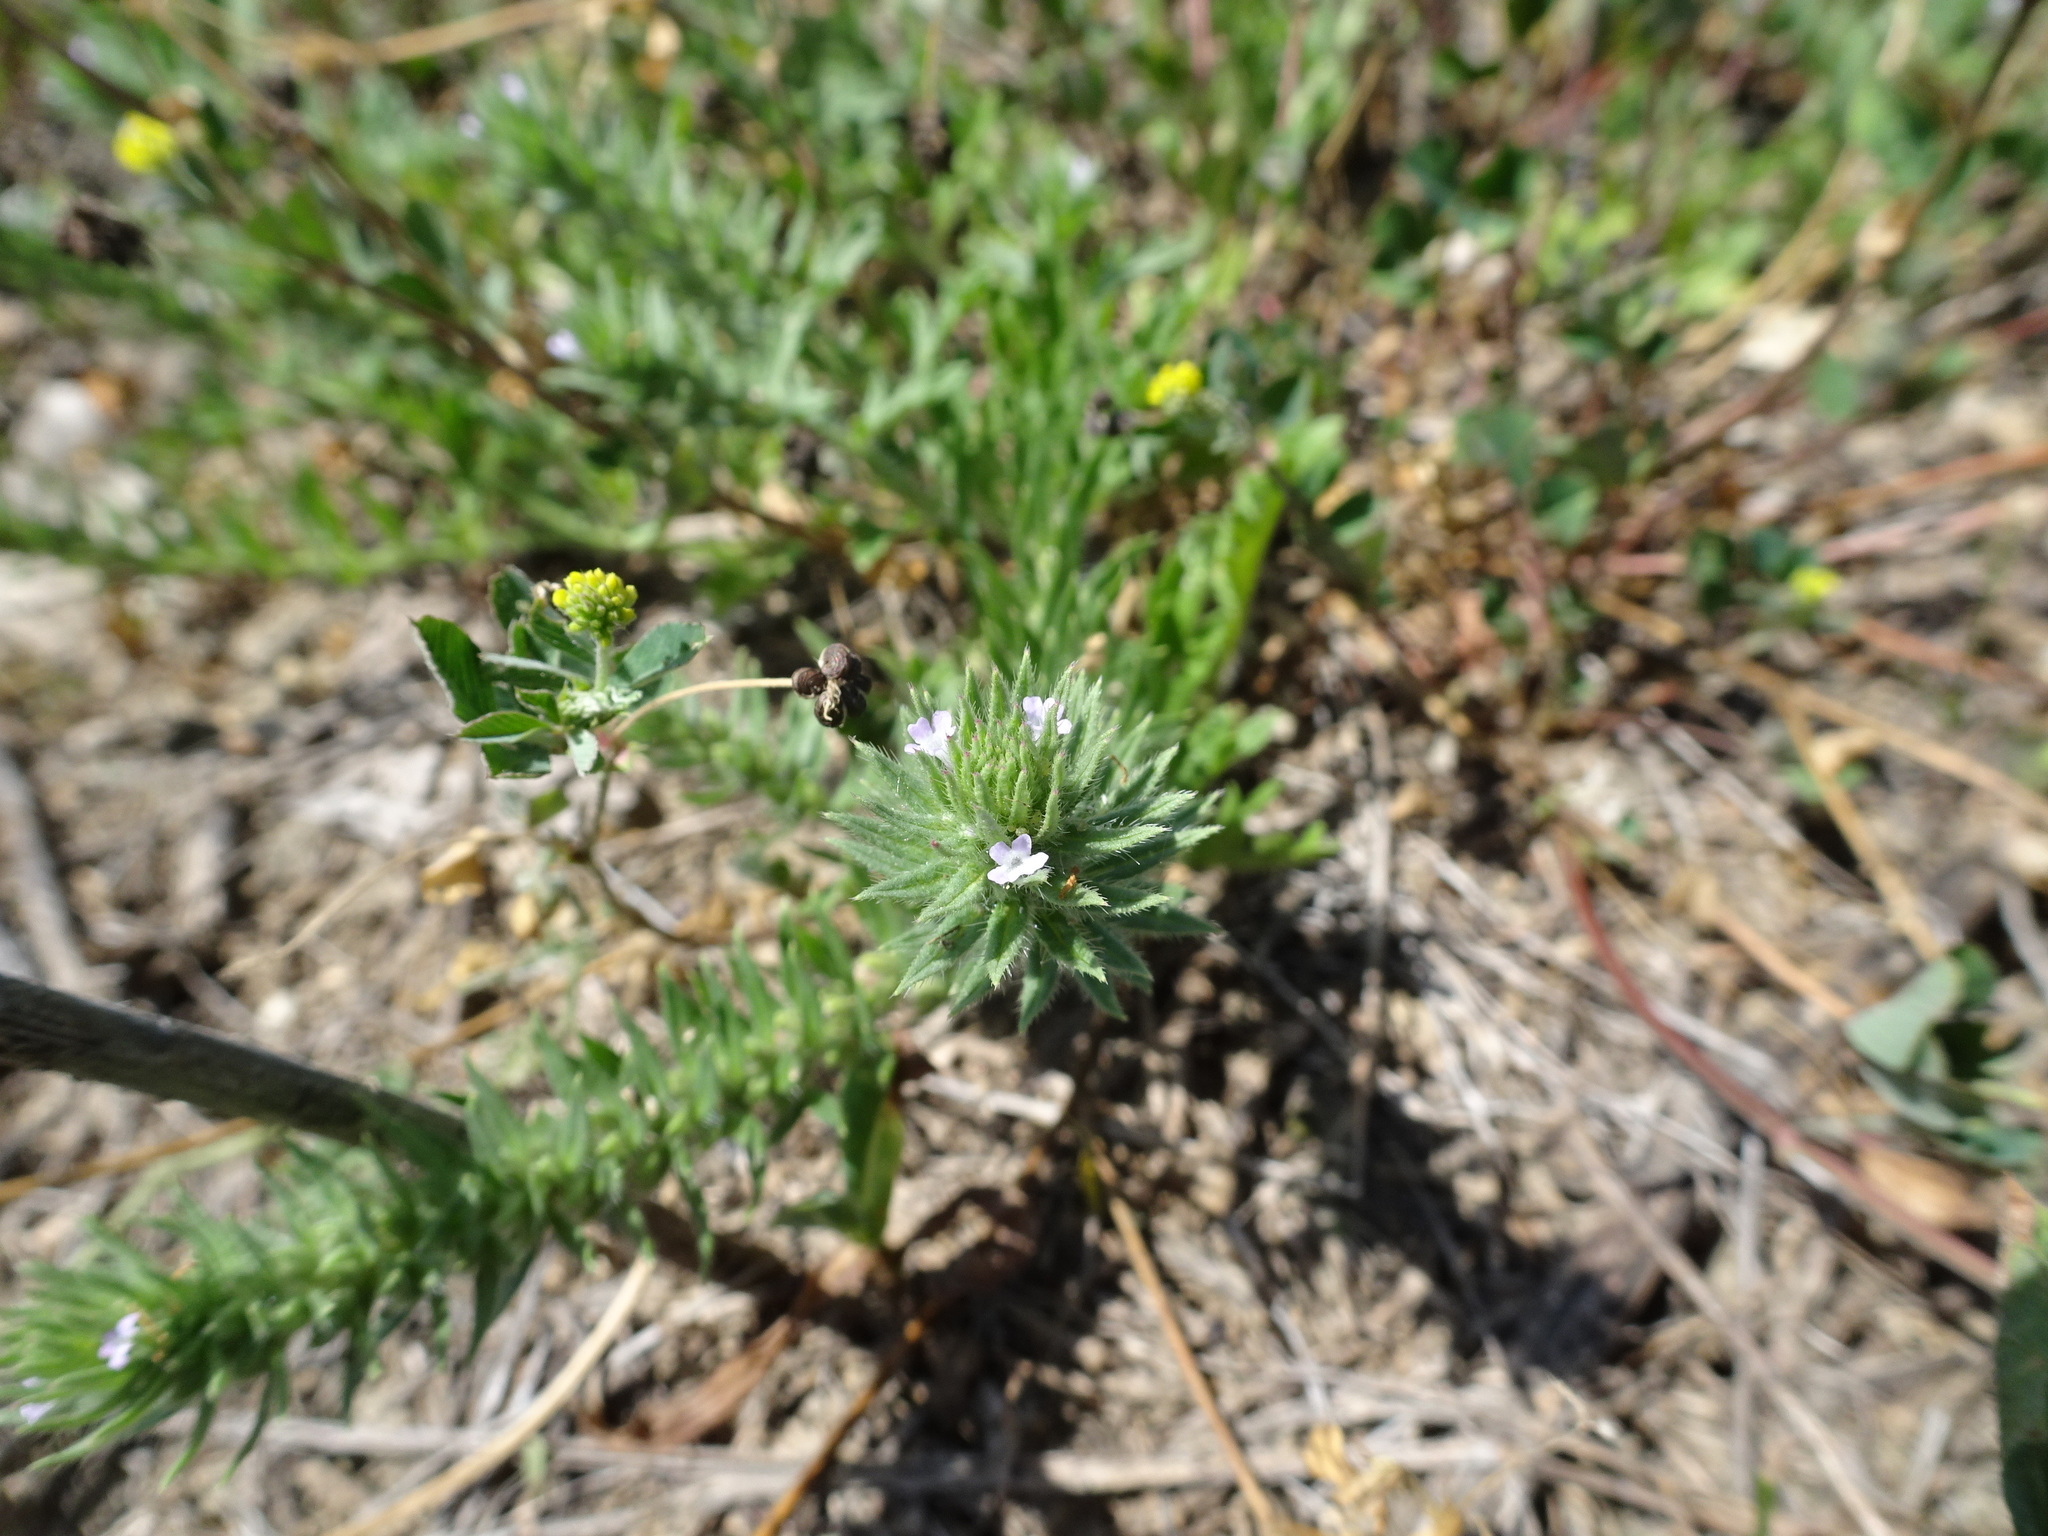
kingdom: Plantae
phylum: Tracheophyta
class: Magnoliopsida
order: Lamiales
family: Verbenaceae
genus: Verbena
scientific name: Verbena bracteata
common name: Bracted vervain
